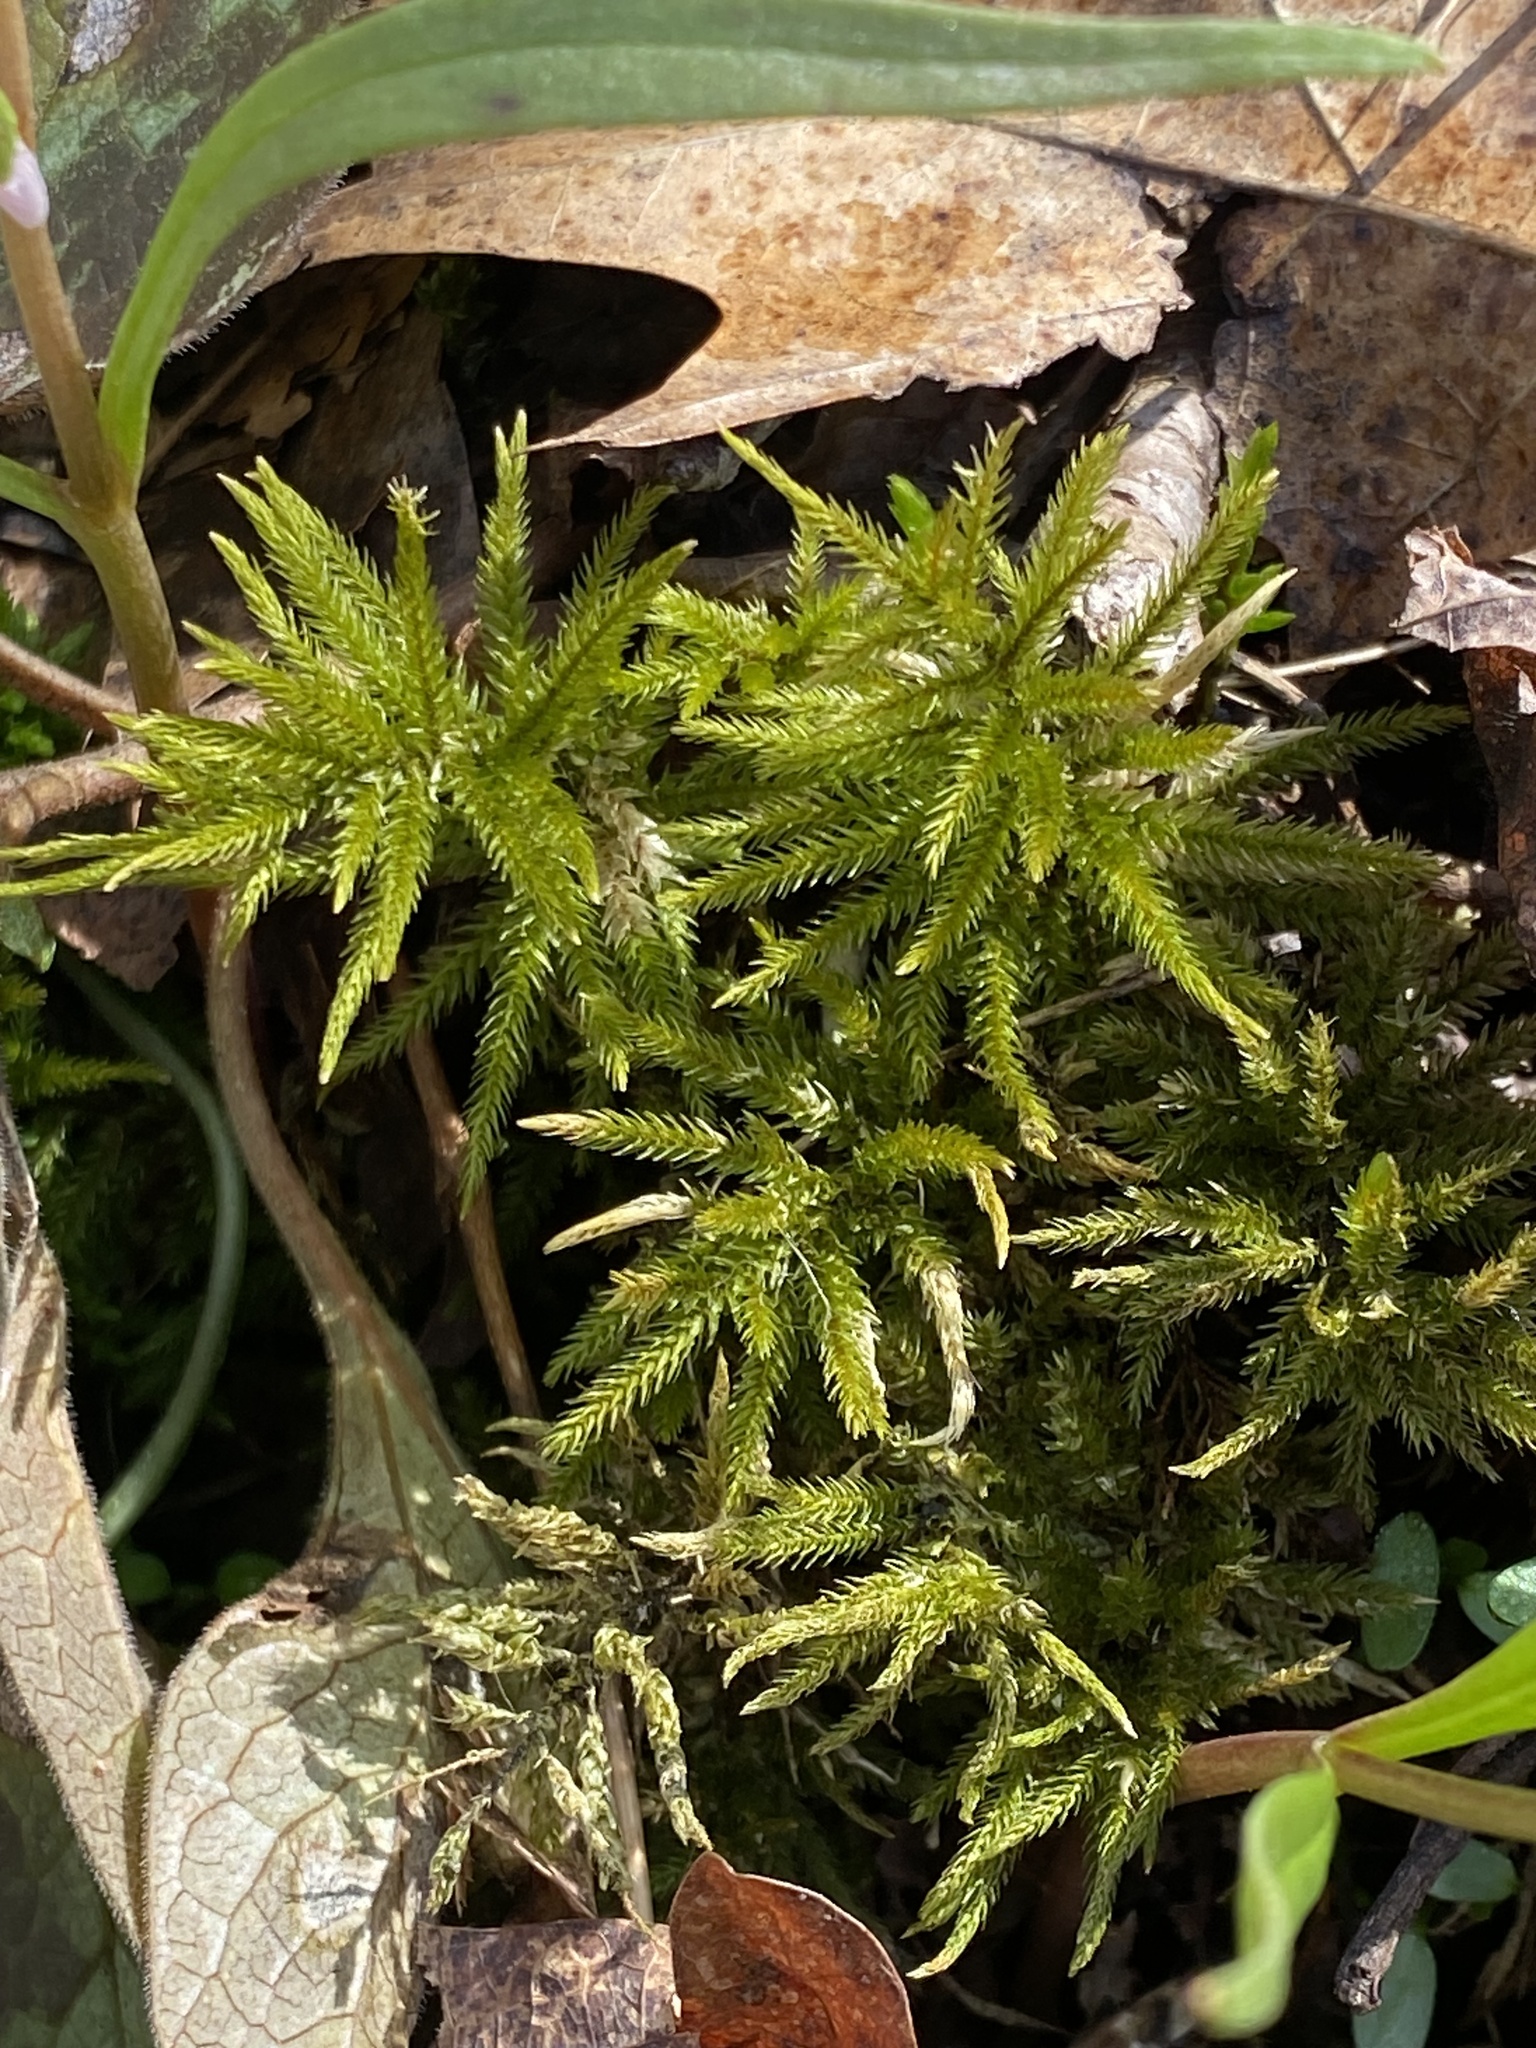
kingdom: Plantae
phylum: Bryophyta
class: Bryopsida
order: Hypnales
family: Climaciaceae
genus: Climacium
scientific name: Climacium americanum
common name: American tree moss
